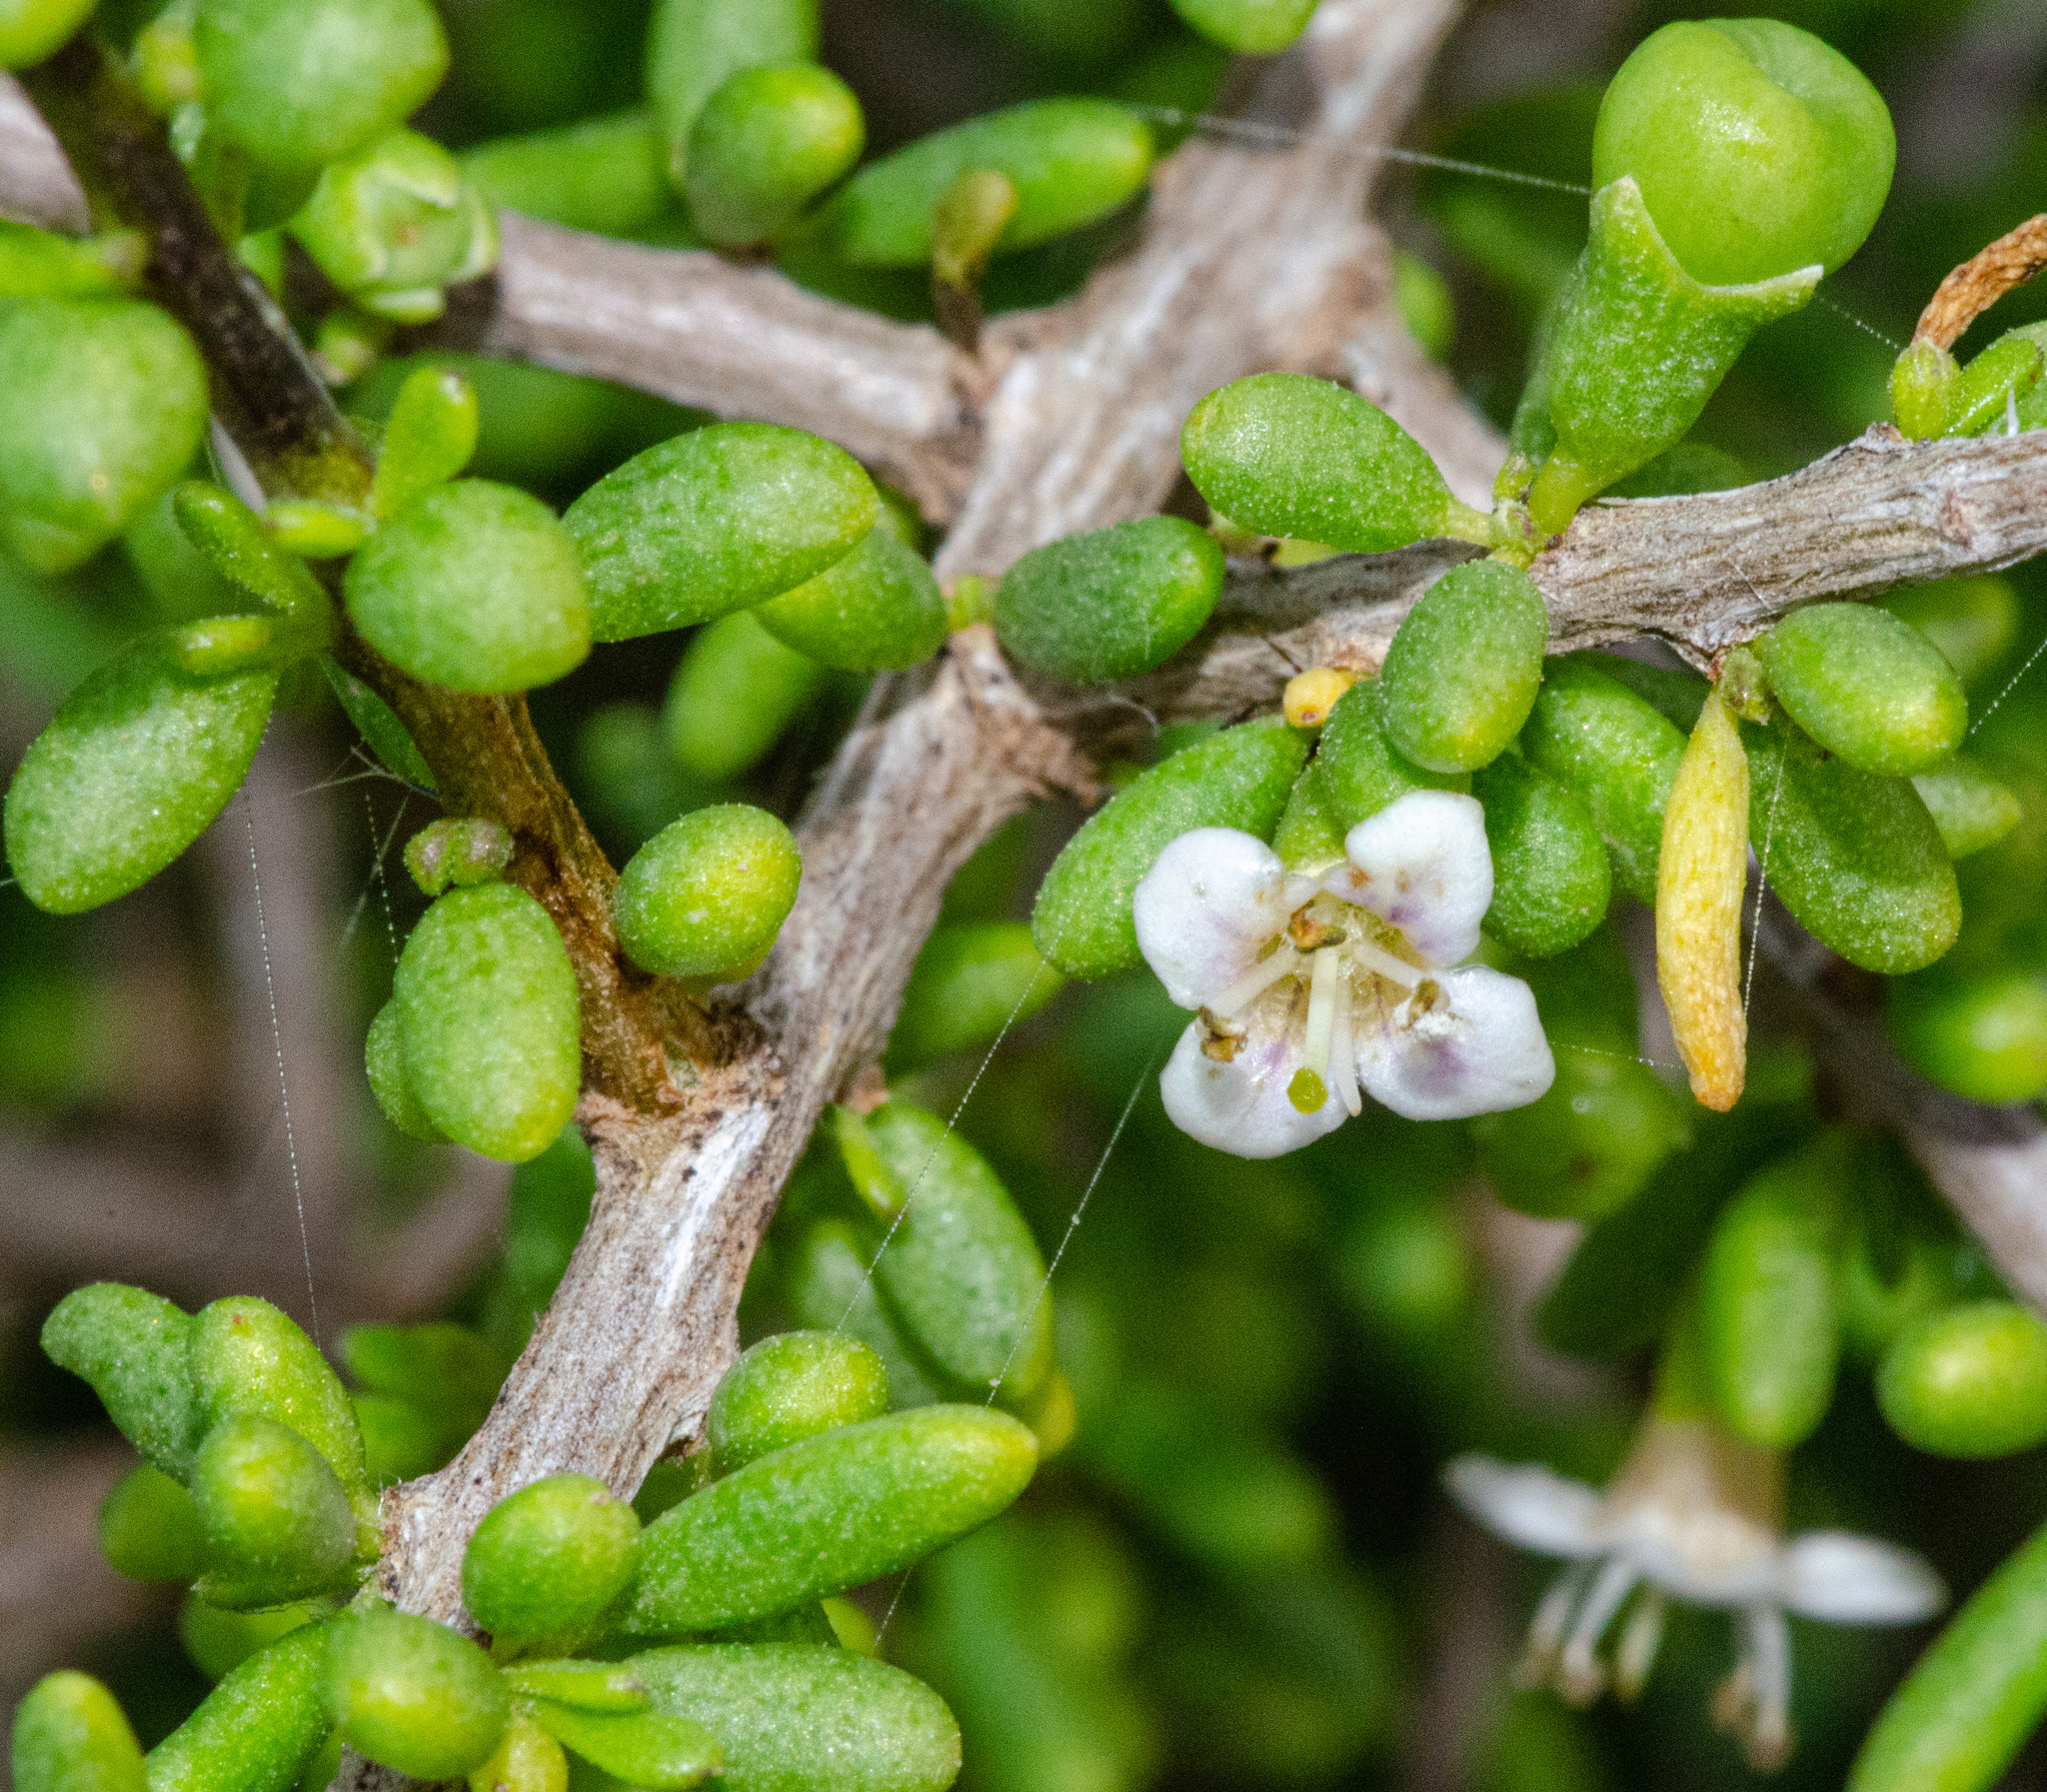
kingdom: Plantae
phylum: Tracheophyta
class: Magnoliopsida
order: Solanales
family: Solanaceae
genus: Lycium
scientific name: Lycium californicum
